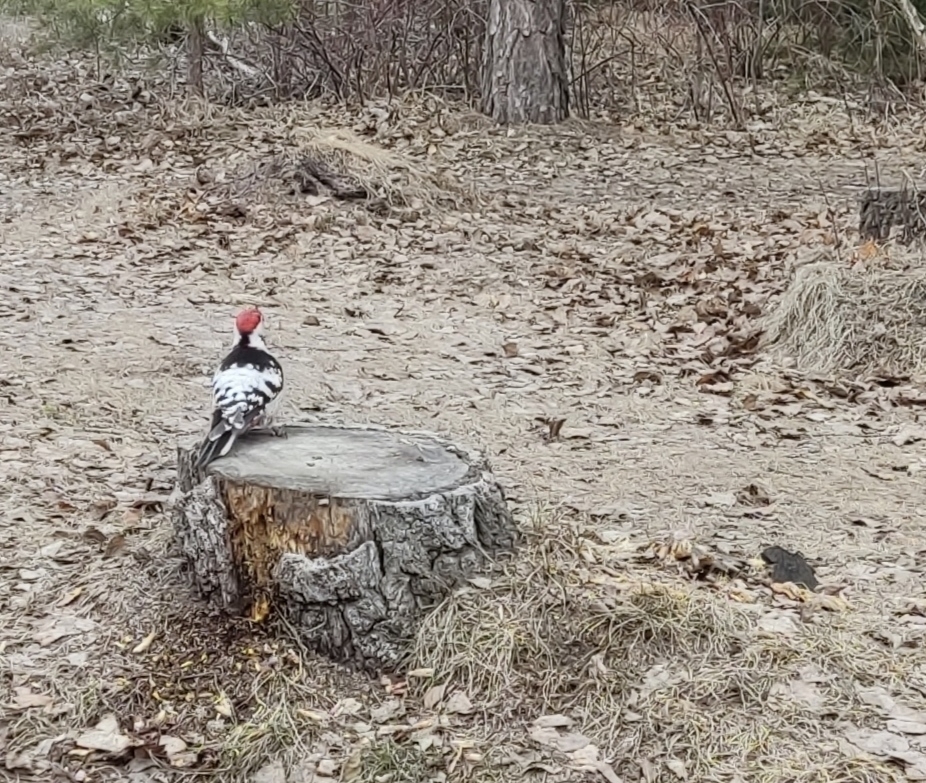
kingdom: Animalia
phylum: Chordata
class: Aves
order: Piciformes
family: Picidae
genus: Dendrocopos
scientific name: Dendrocopos leucotos
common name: White-backed woodpecker
